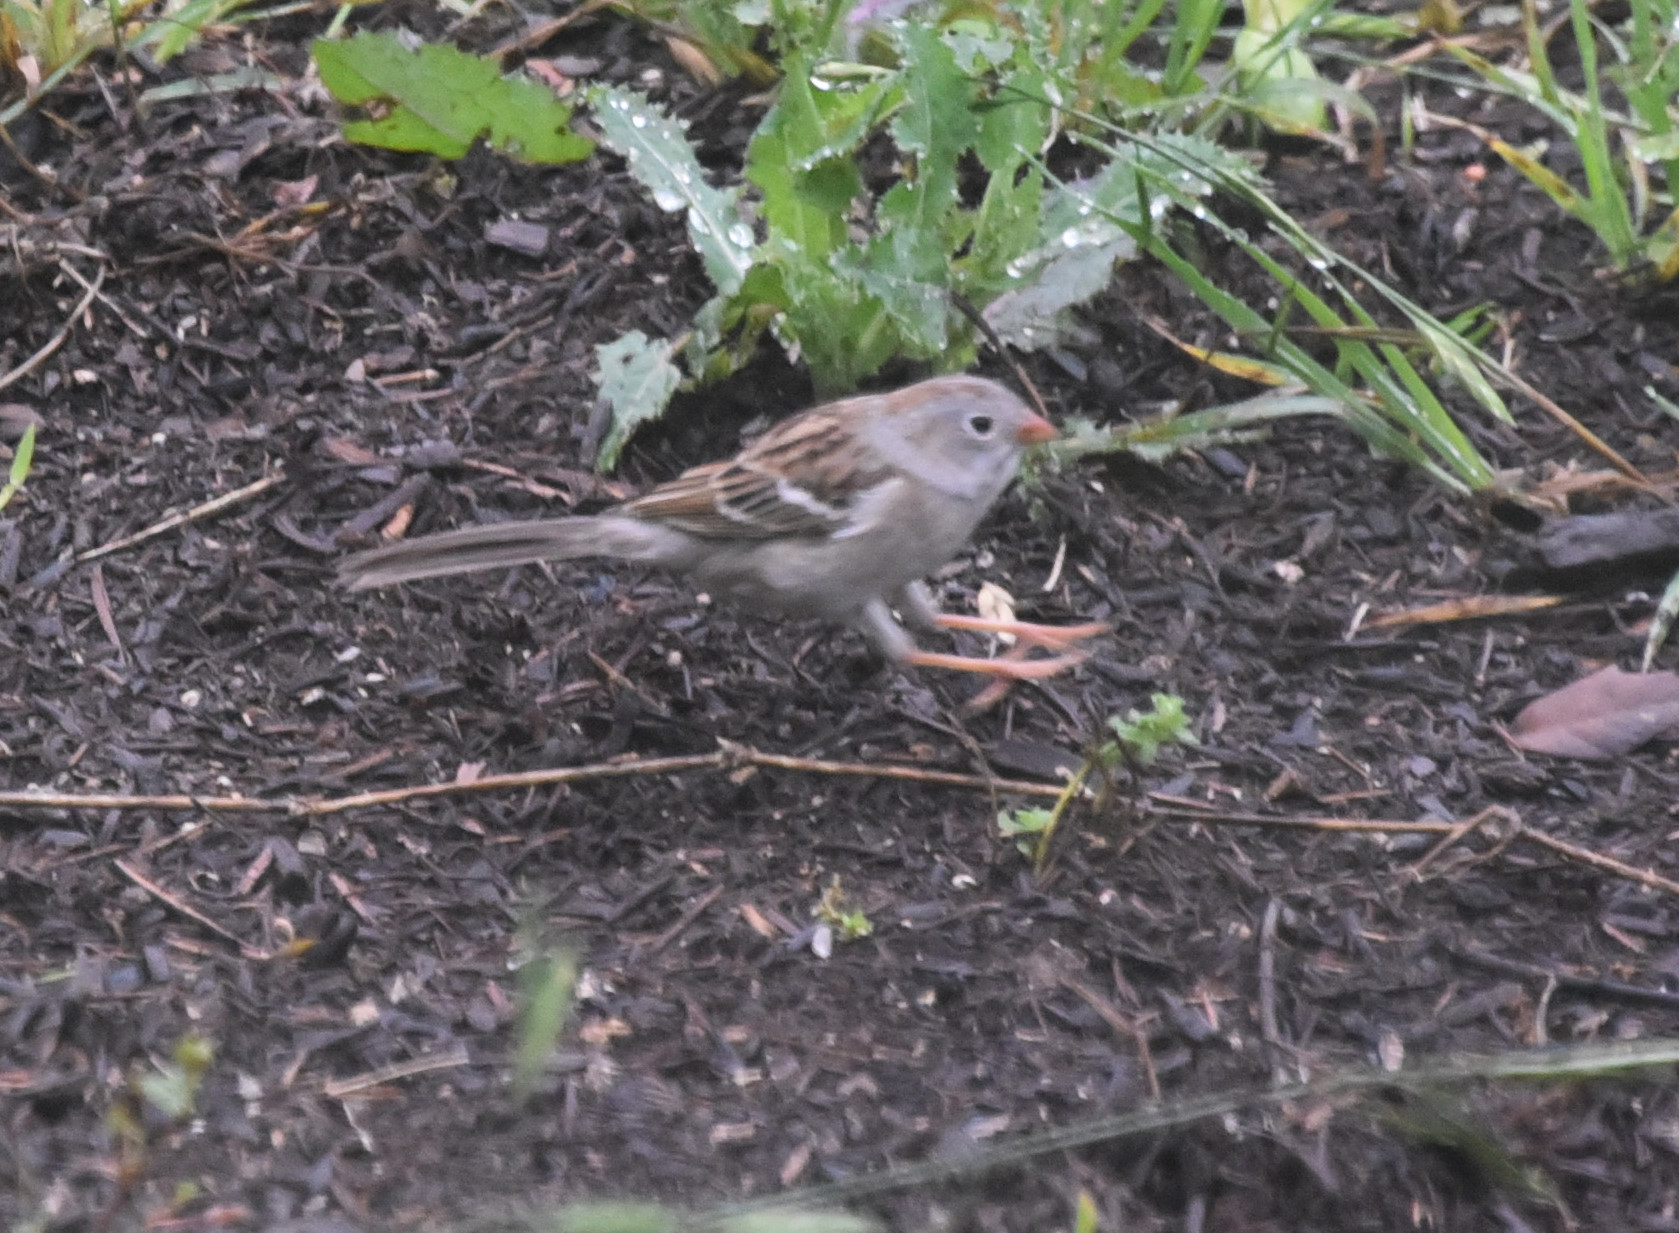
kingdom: Animalia
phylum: Chordata
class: Aves
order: Passeriformes
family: Passerellidae
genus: Spizella
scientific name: Spizella pusilla
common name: Field sparrow
